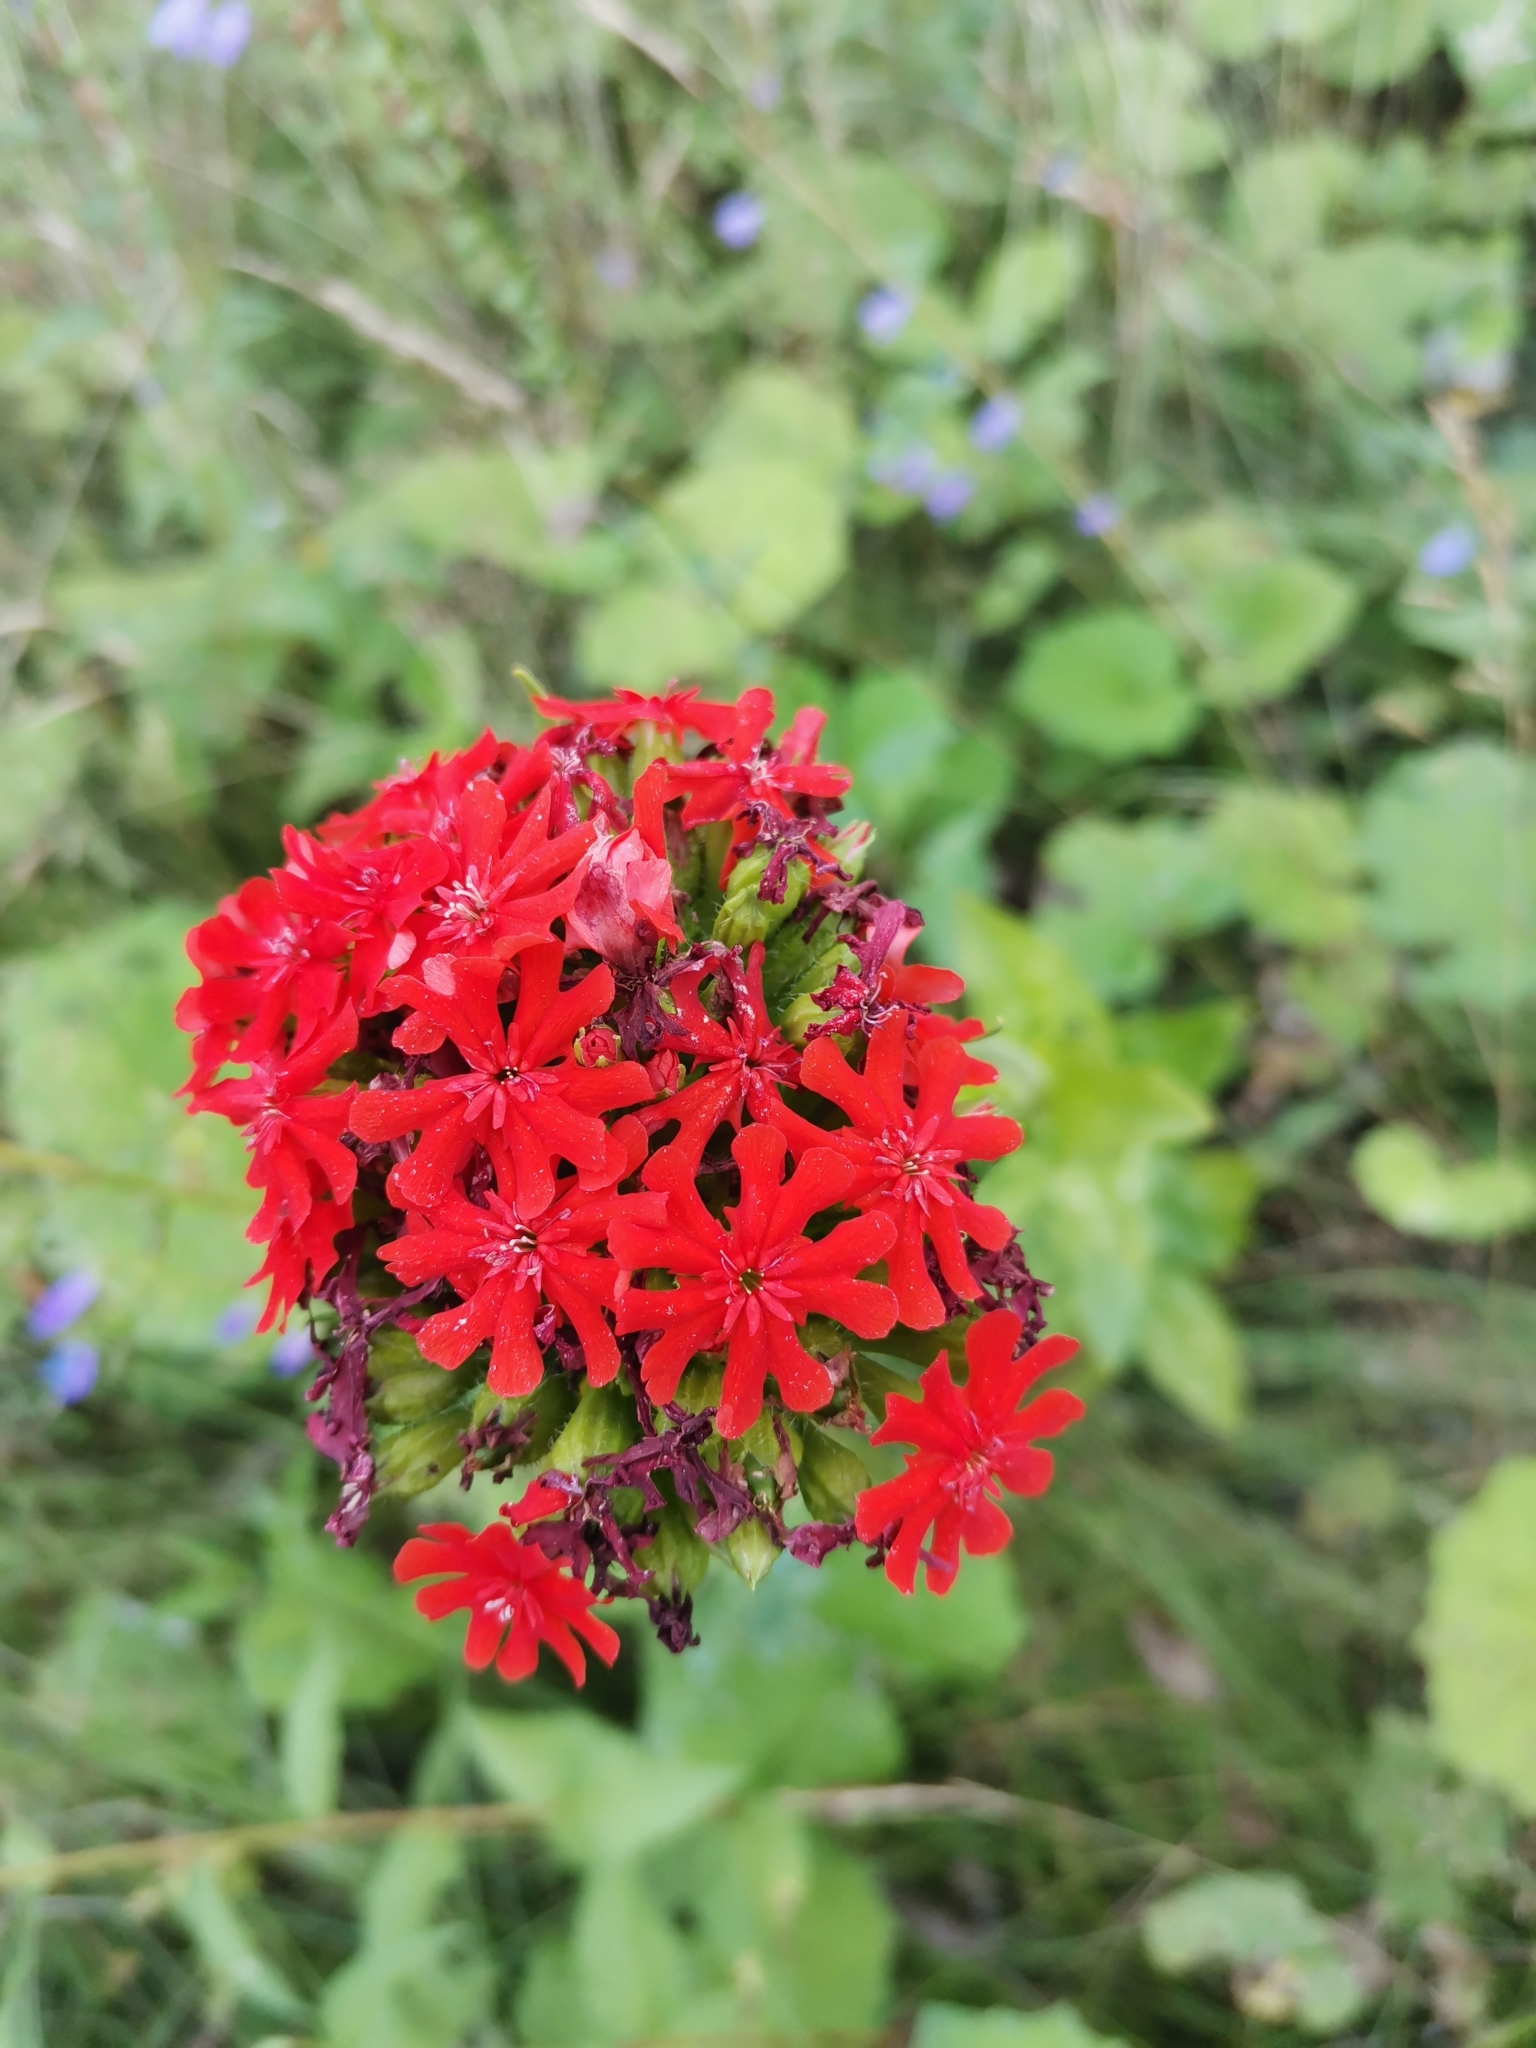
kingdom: Plantae
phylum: Tracheophyta
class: Magnoliopsida
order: Caryophyllales
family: Caryophyllaceae
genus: Silene
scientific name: Silene chalcedonica
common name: Maltese-cross
